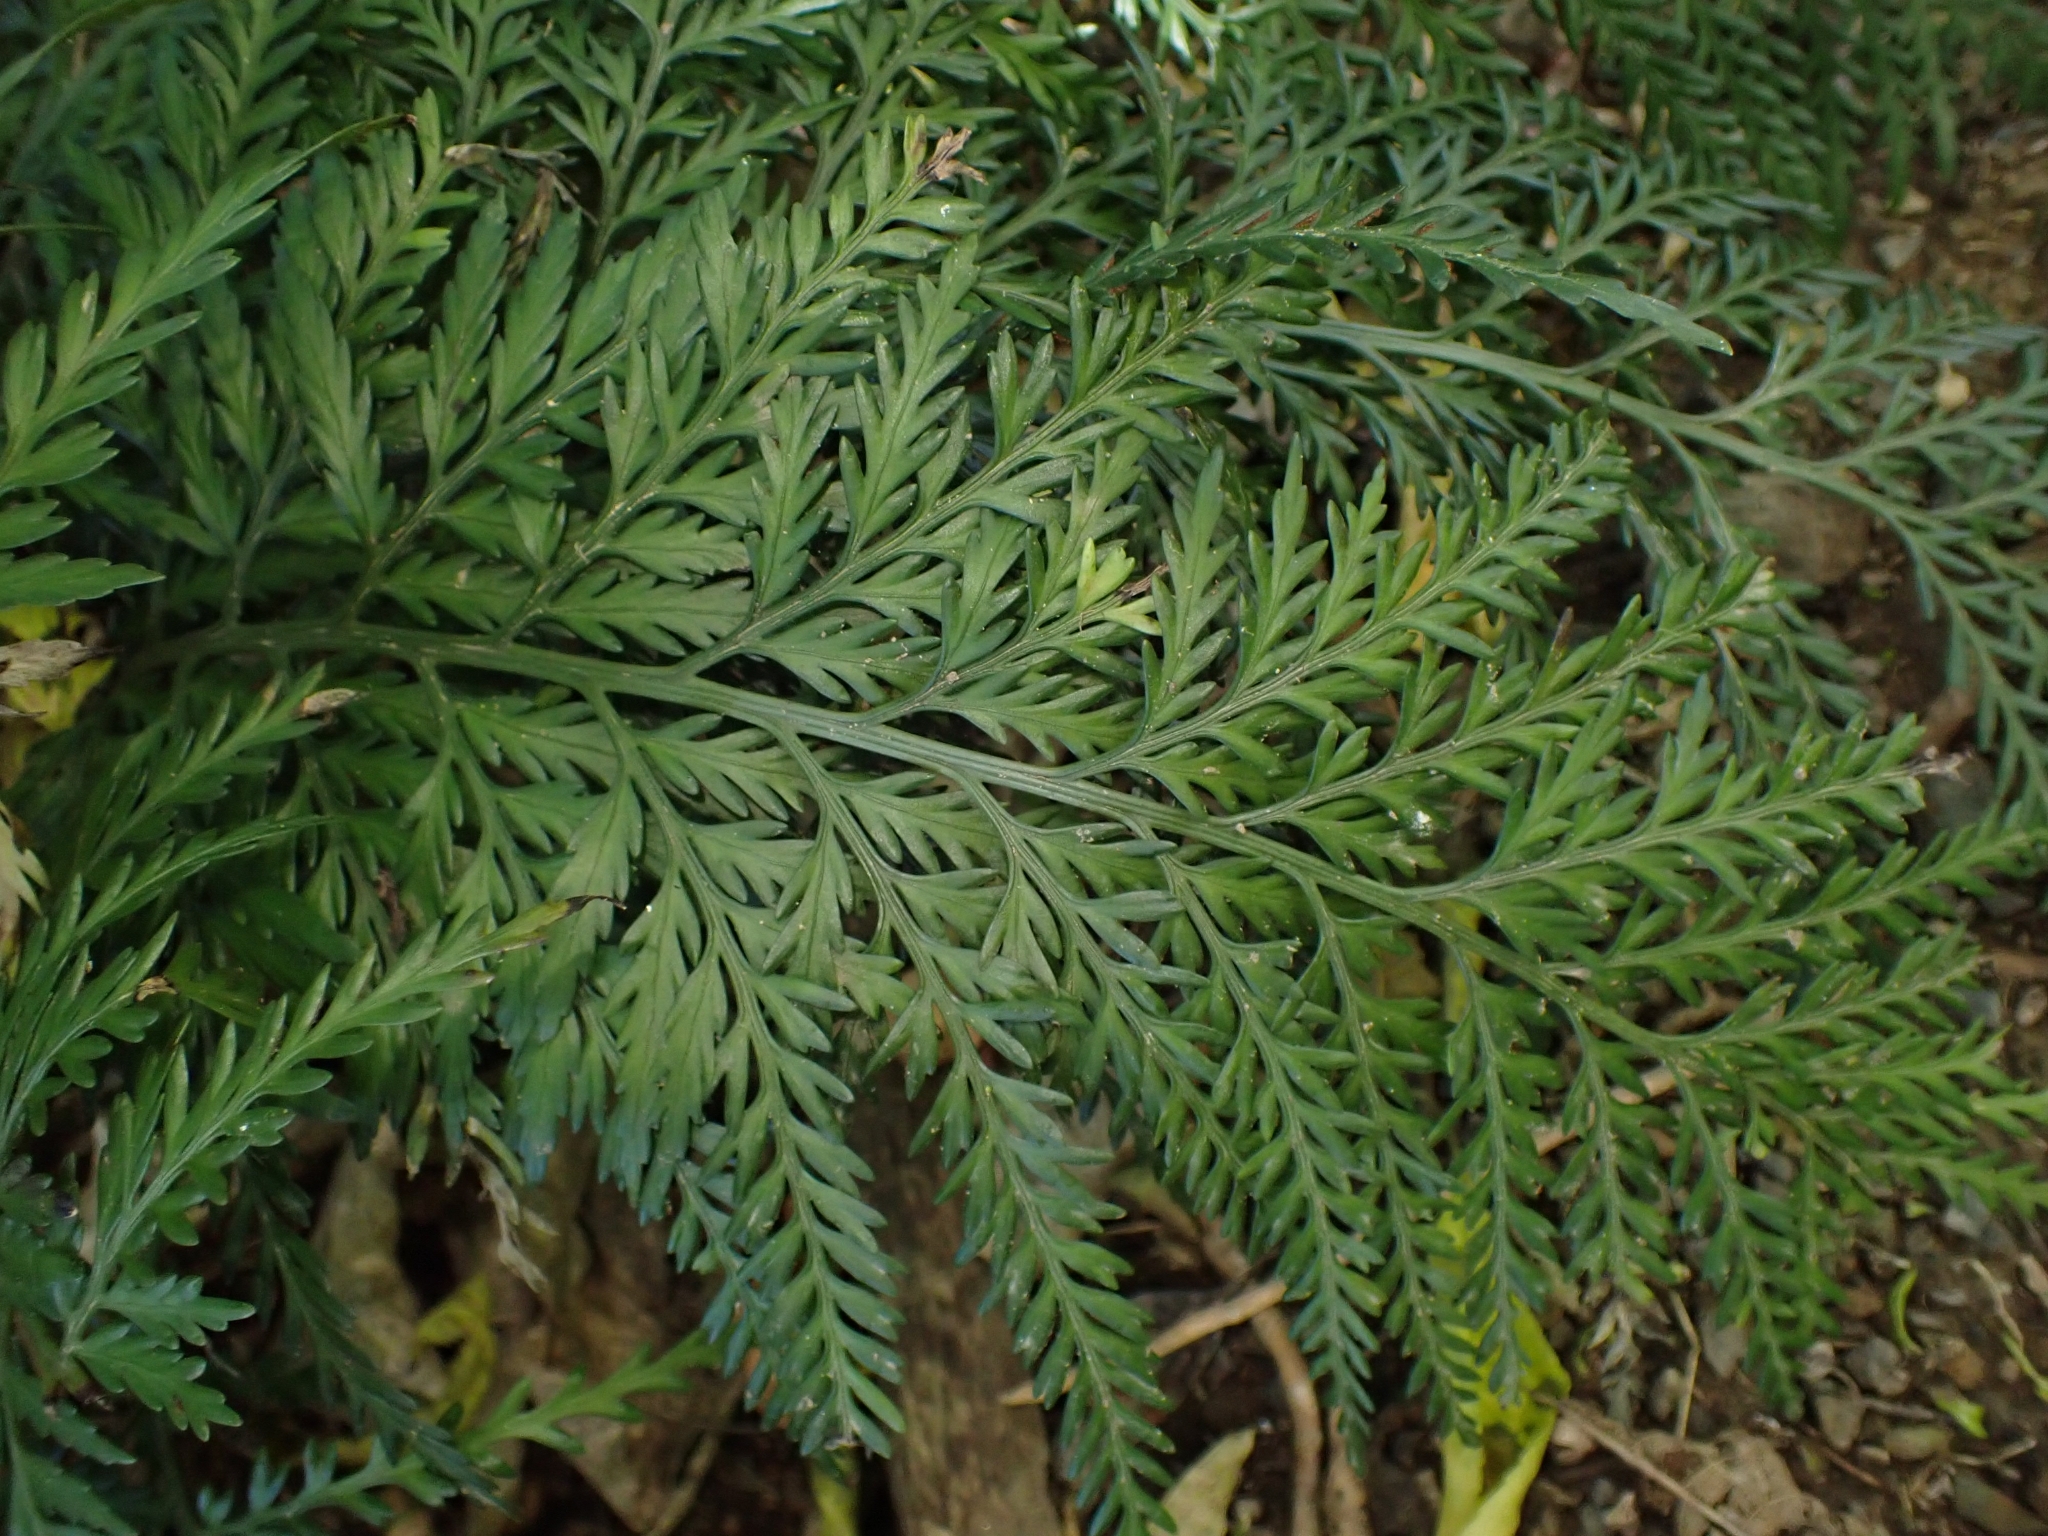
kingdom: Plantae
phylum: Tracheophyta
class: Polypodiopsida
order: Polypodiales
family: Aspleniaceae
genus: Asplenium
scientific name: Asplenium appendiculatum
